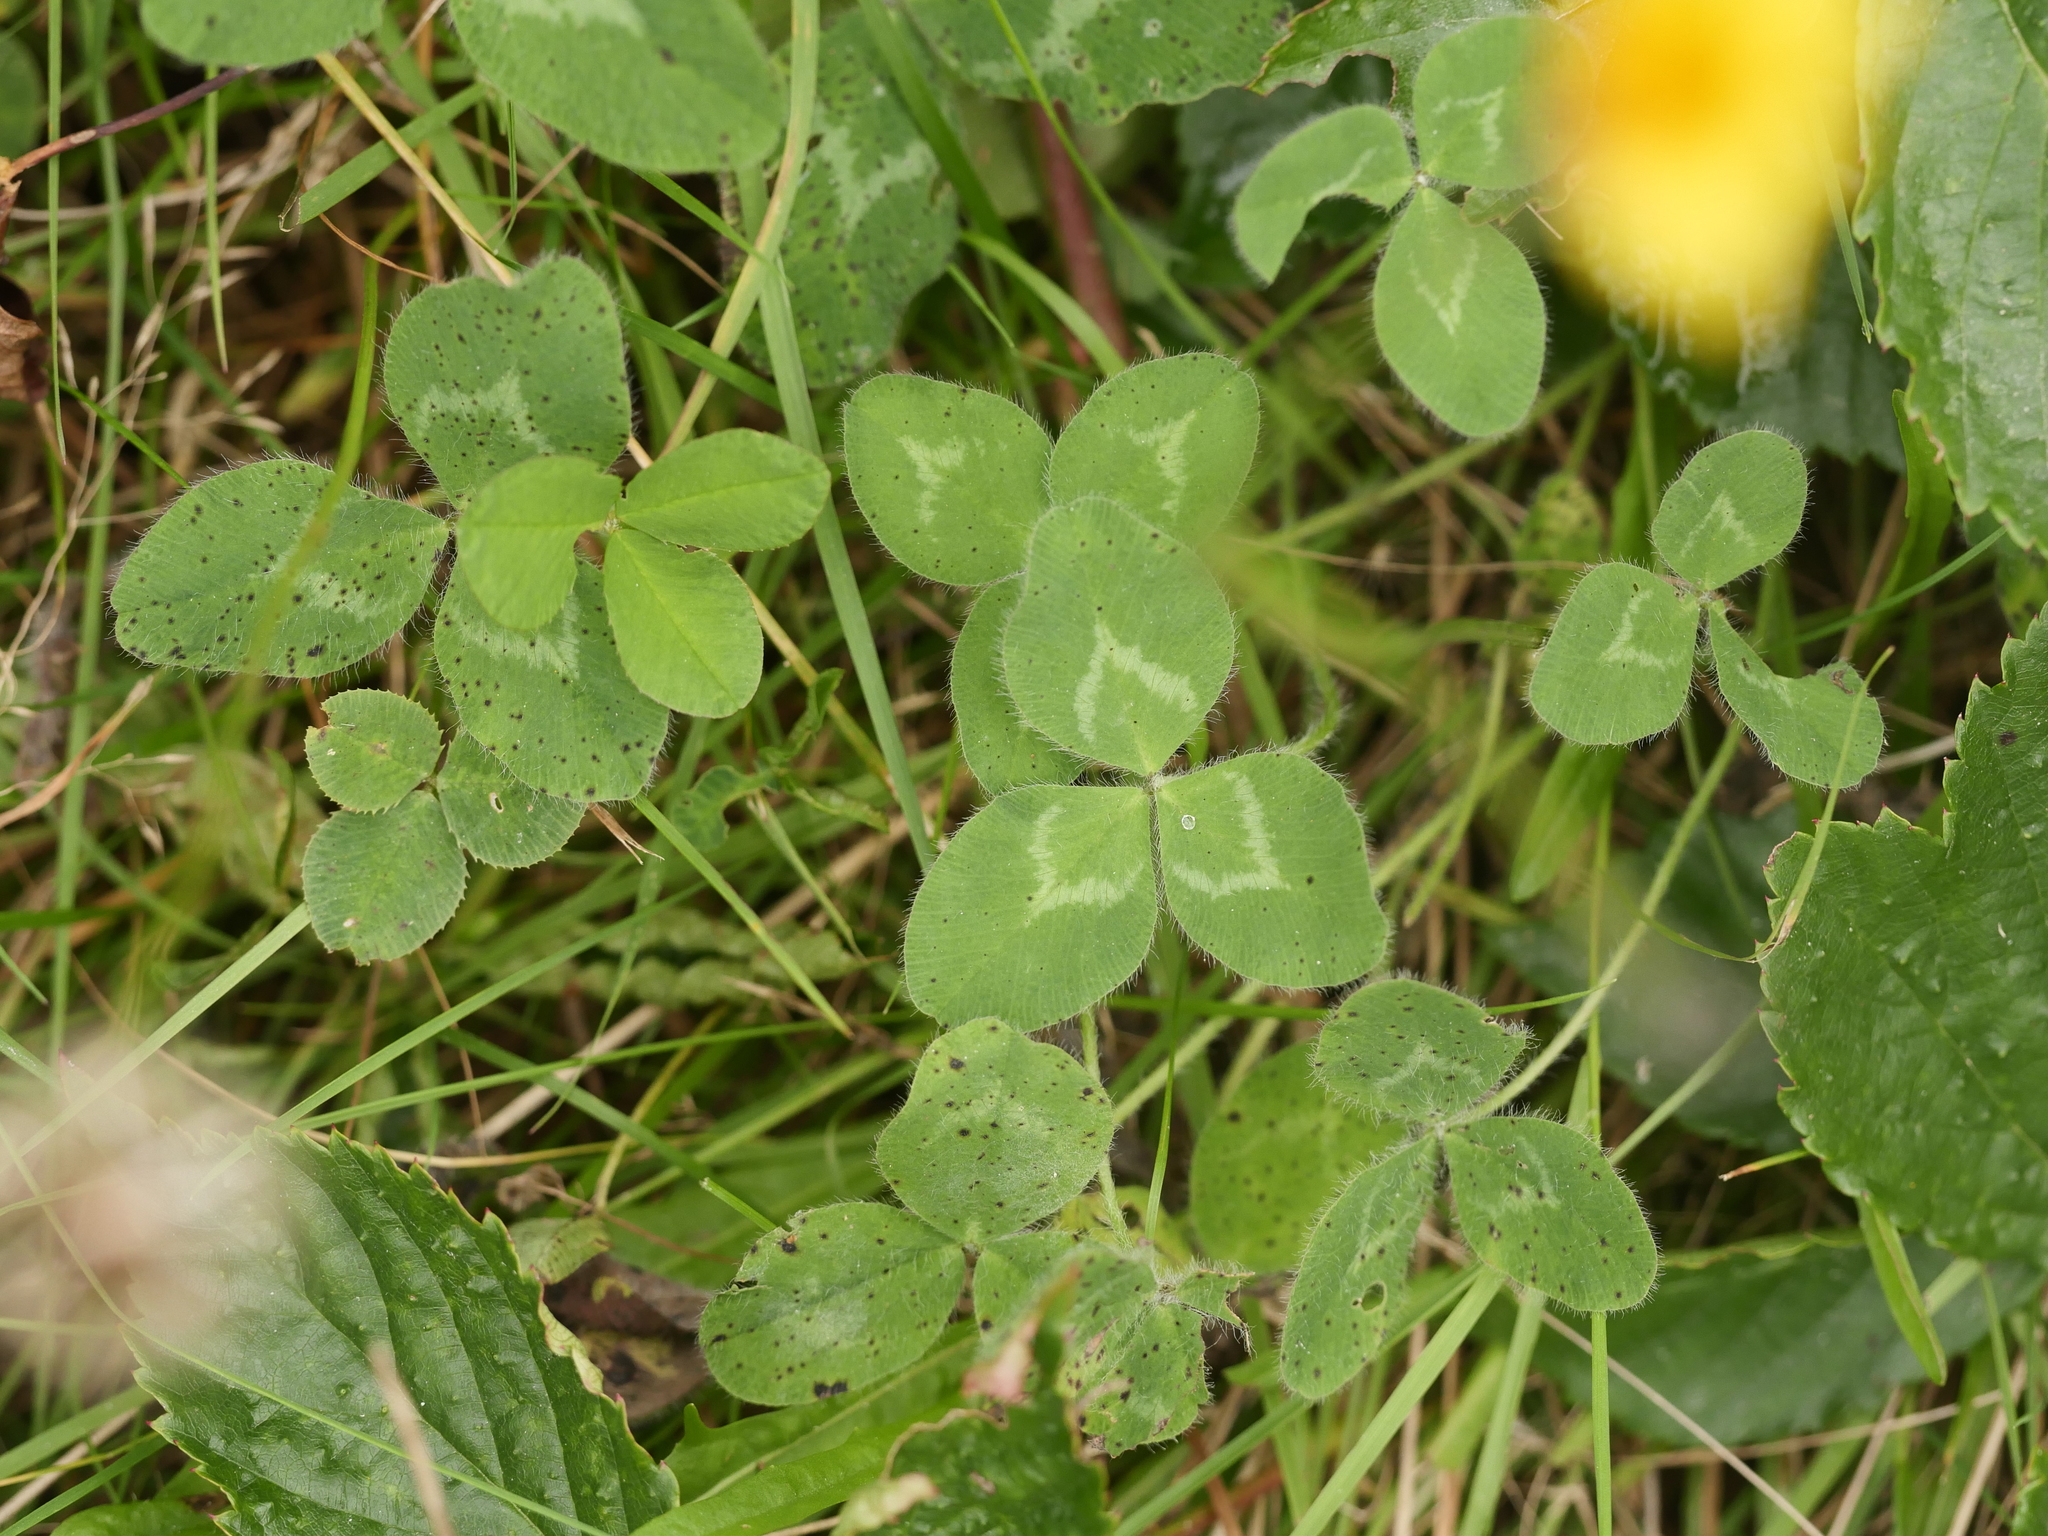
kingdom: Plantae
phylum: Tracheophyta
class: Magnoliopsida
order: Fabales
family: Fabaceae
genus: Trifolium
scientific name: Trifolium repens
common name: White clover
